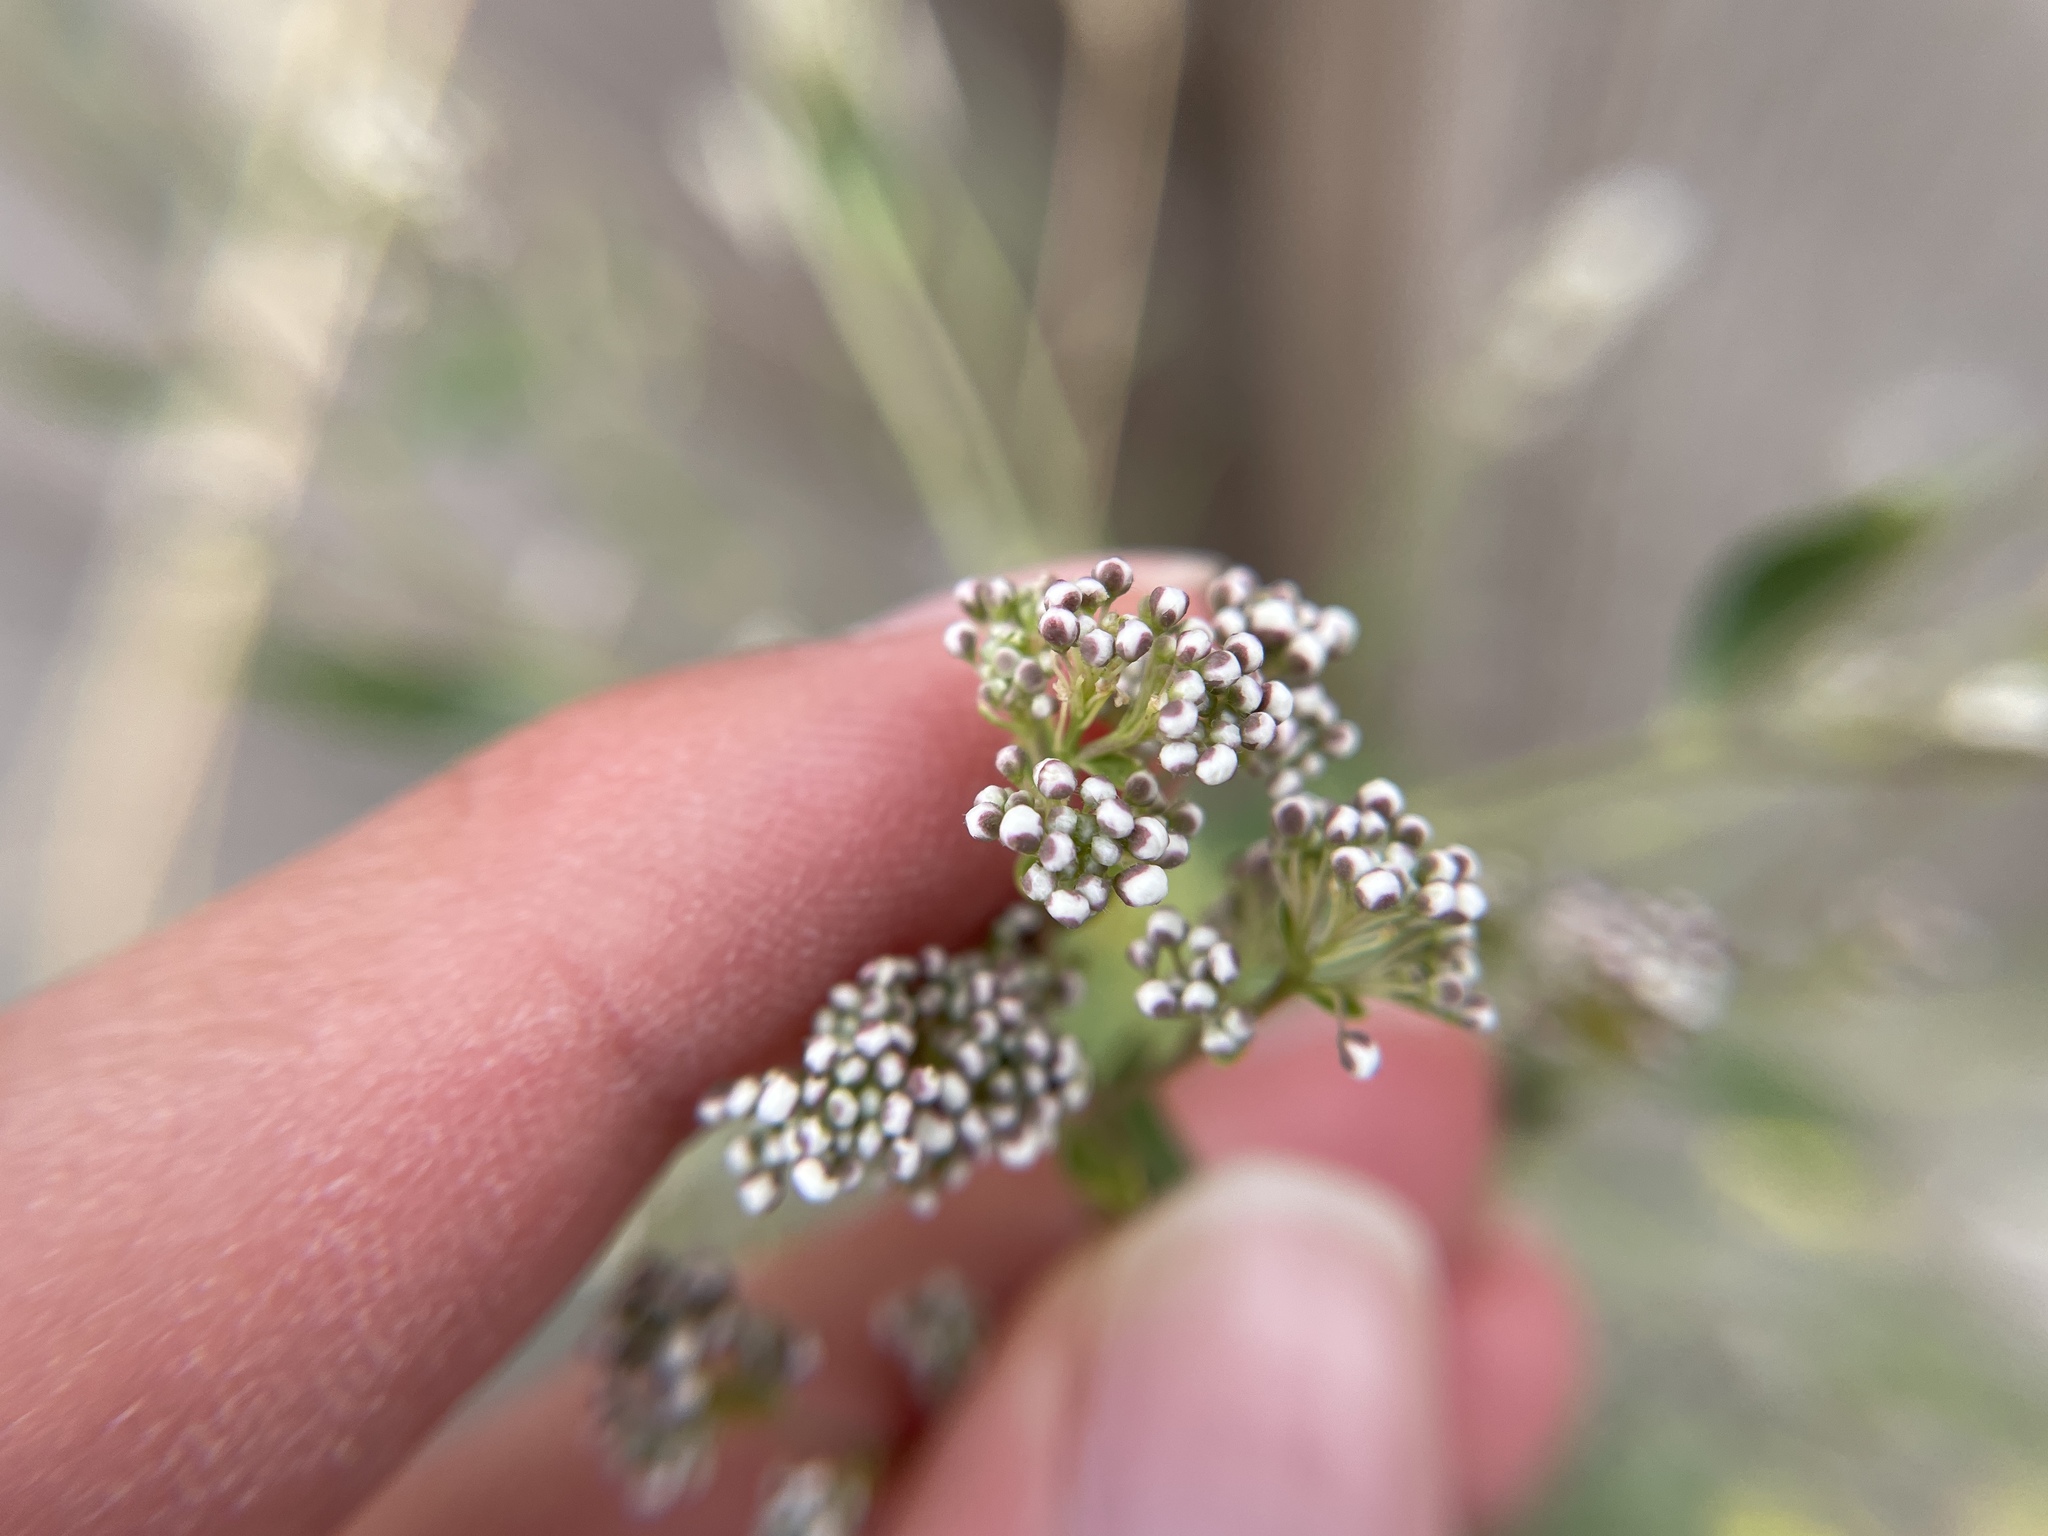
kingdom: Plantae
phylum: Tracheophyta
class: Magnoliopsida
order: Brassicales
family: Brassicaceae
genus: Lepidium
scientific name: Lepidium latifolium
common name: Dittander
